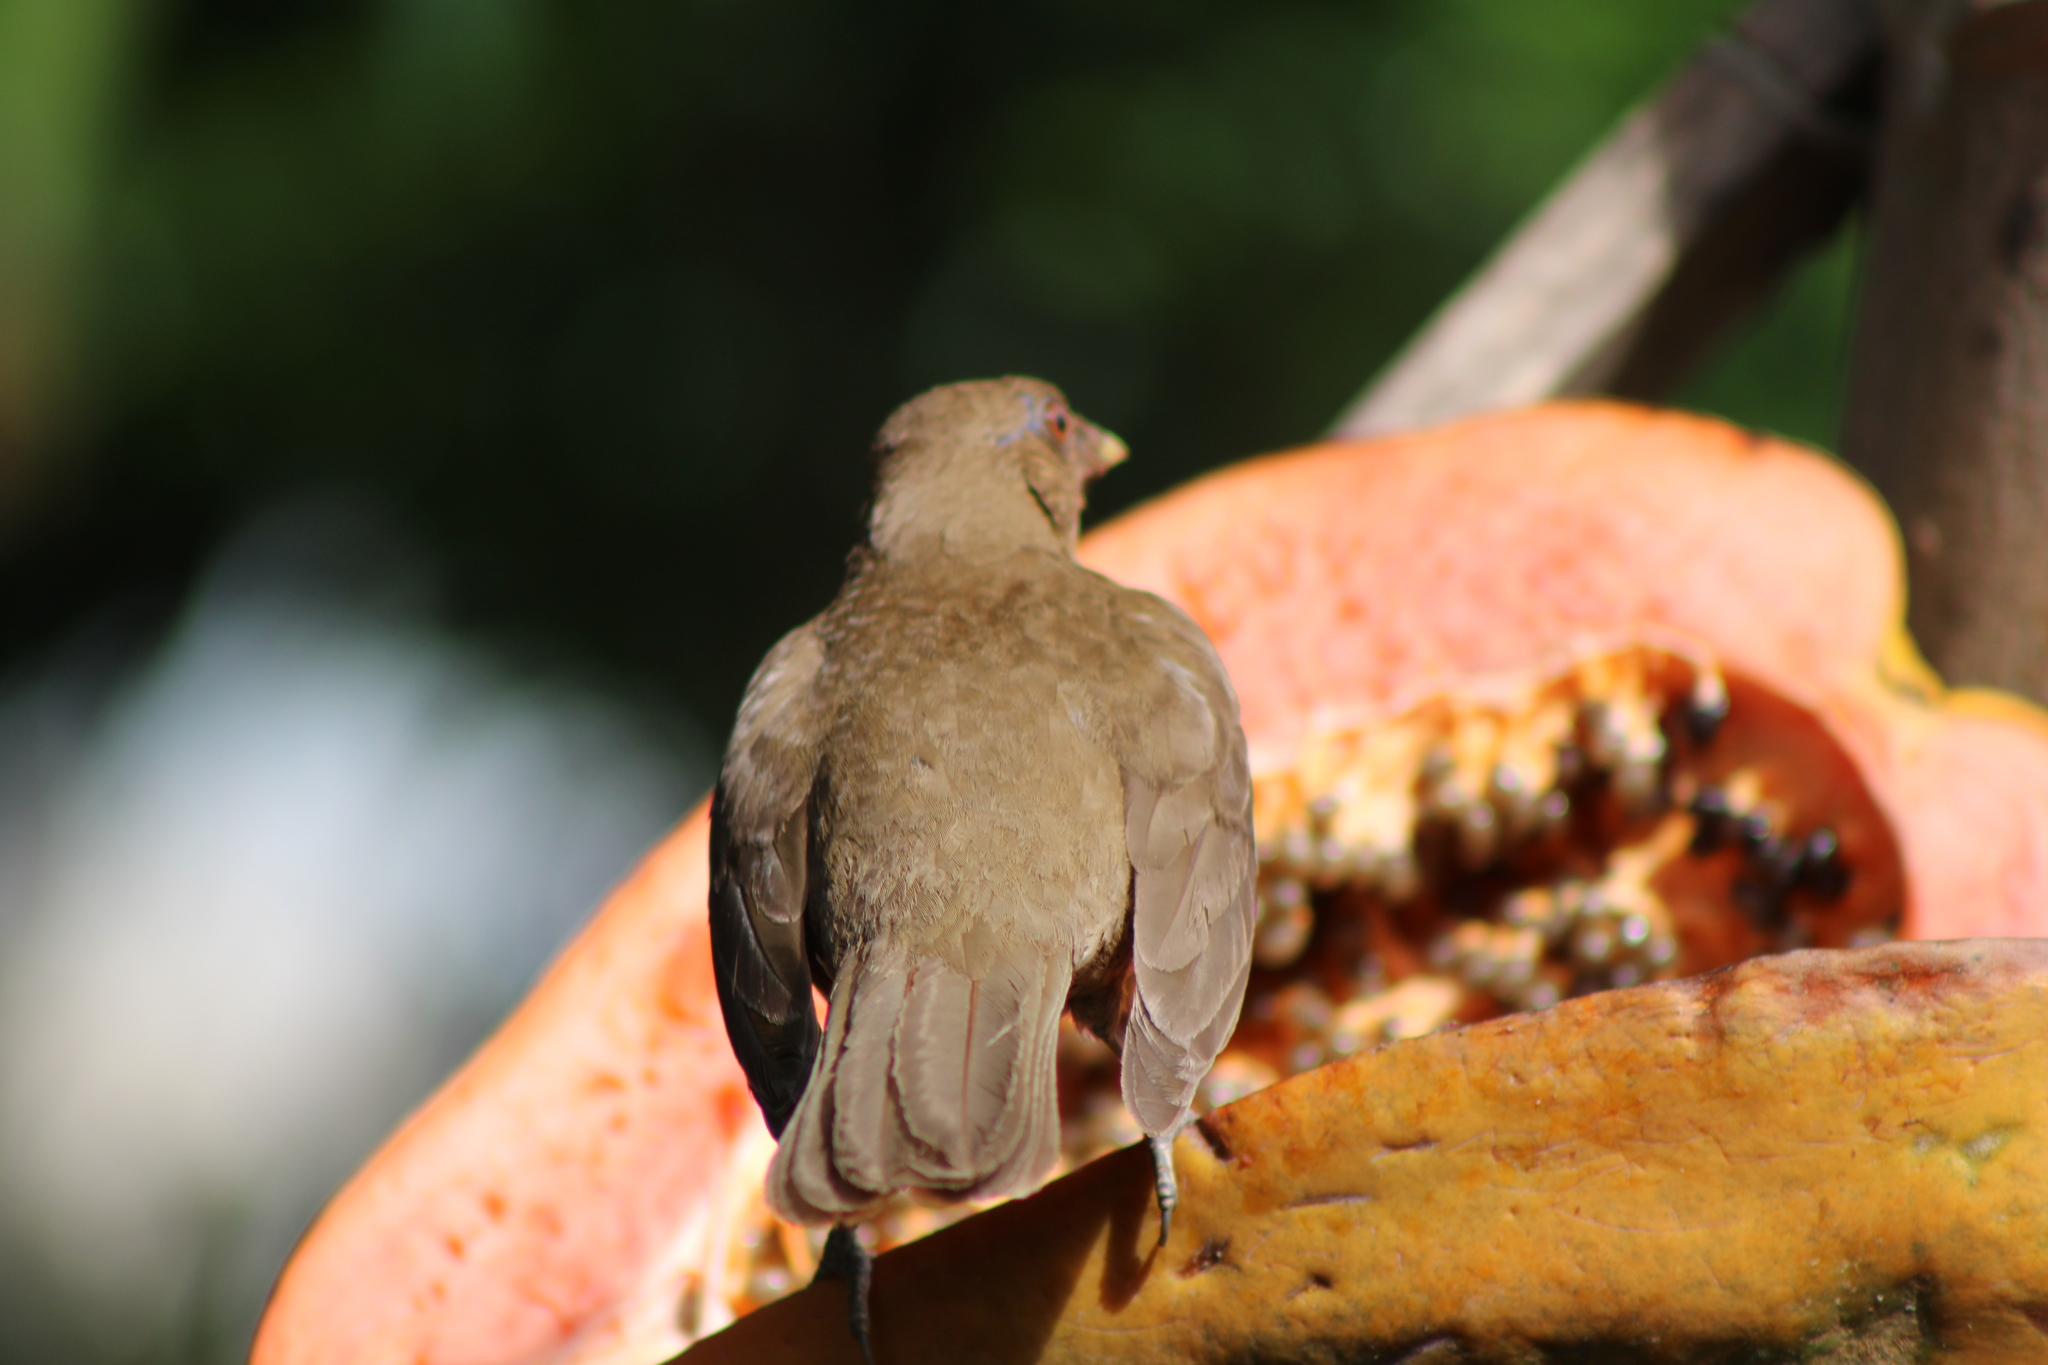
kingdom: Animalia
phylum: Chordata
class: Aves
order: Passeriformes
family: Turdidae
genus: Turdus
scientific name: Turdus grayi
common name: Clay-colored thrush
